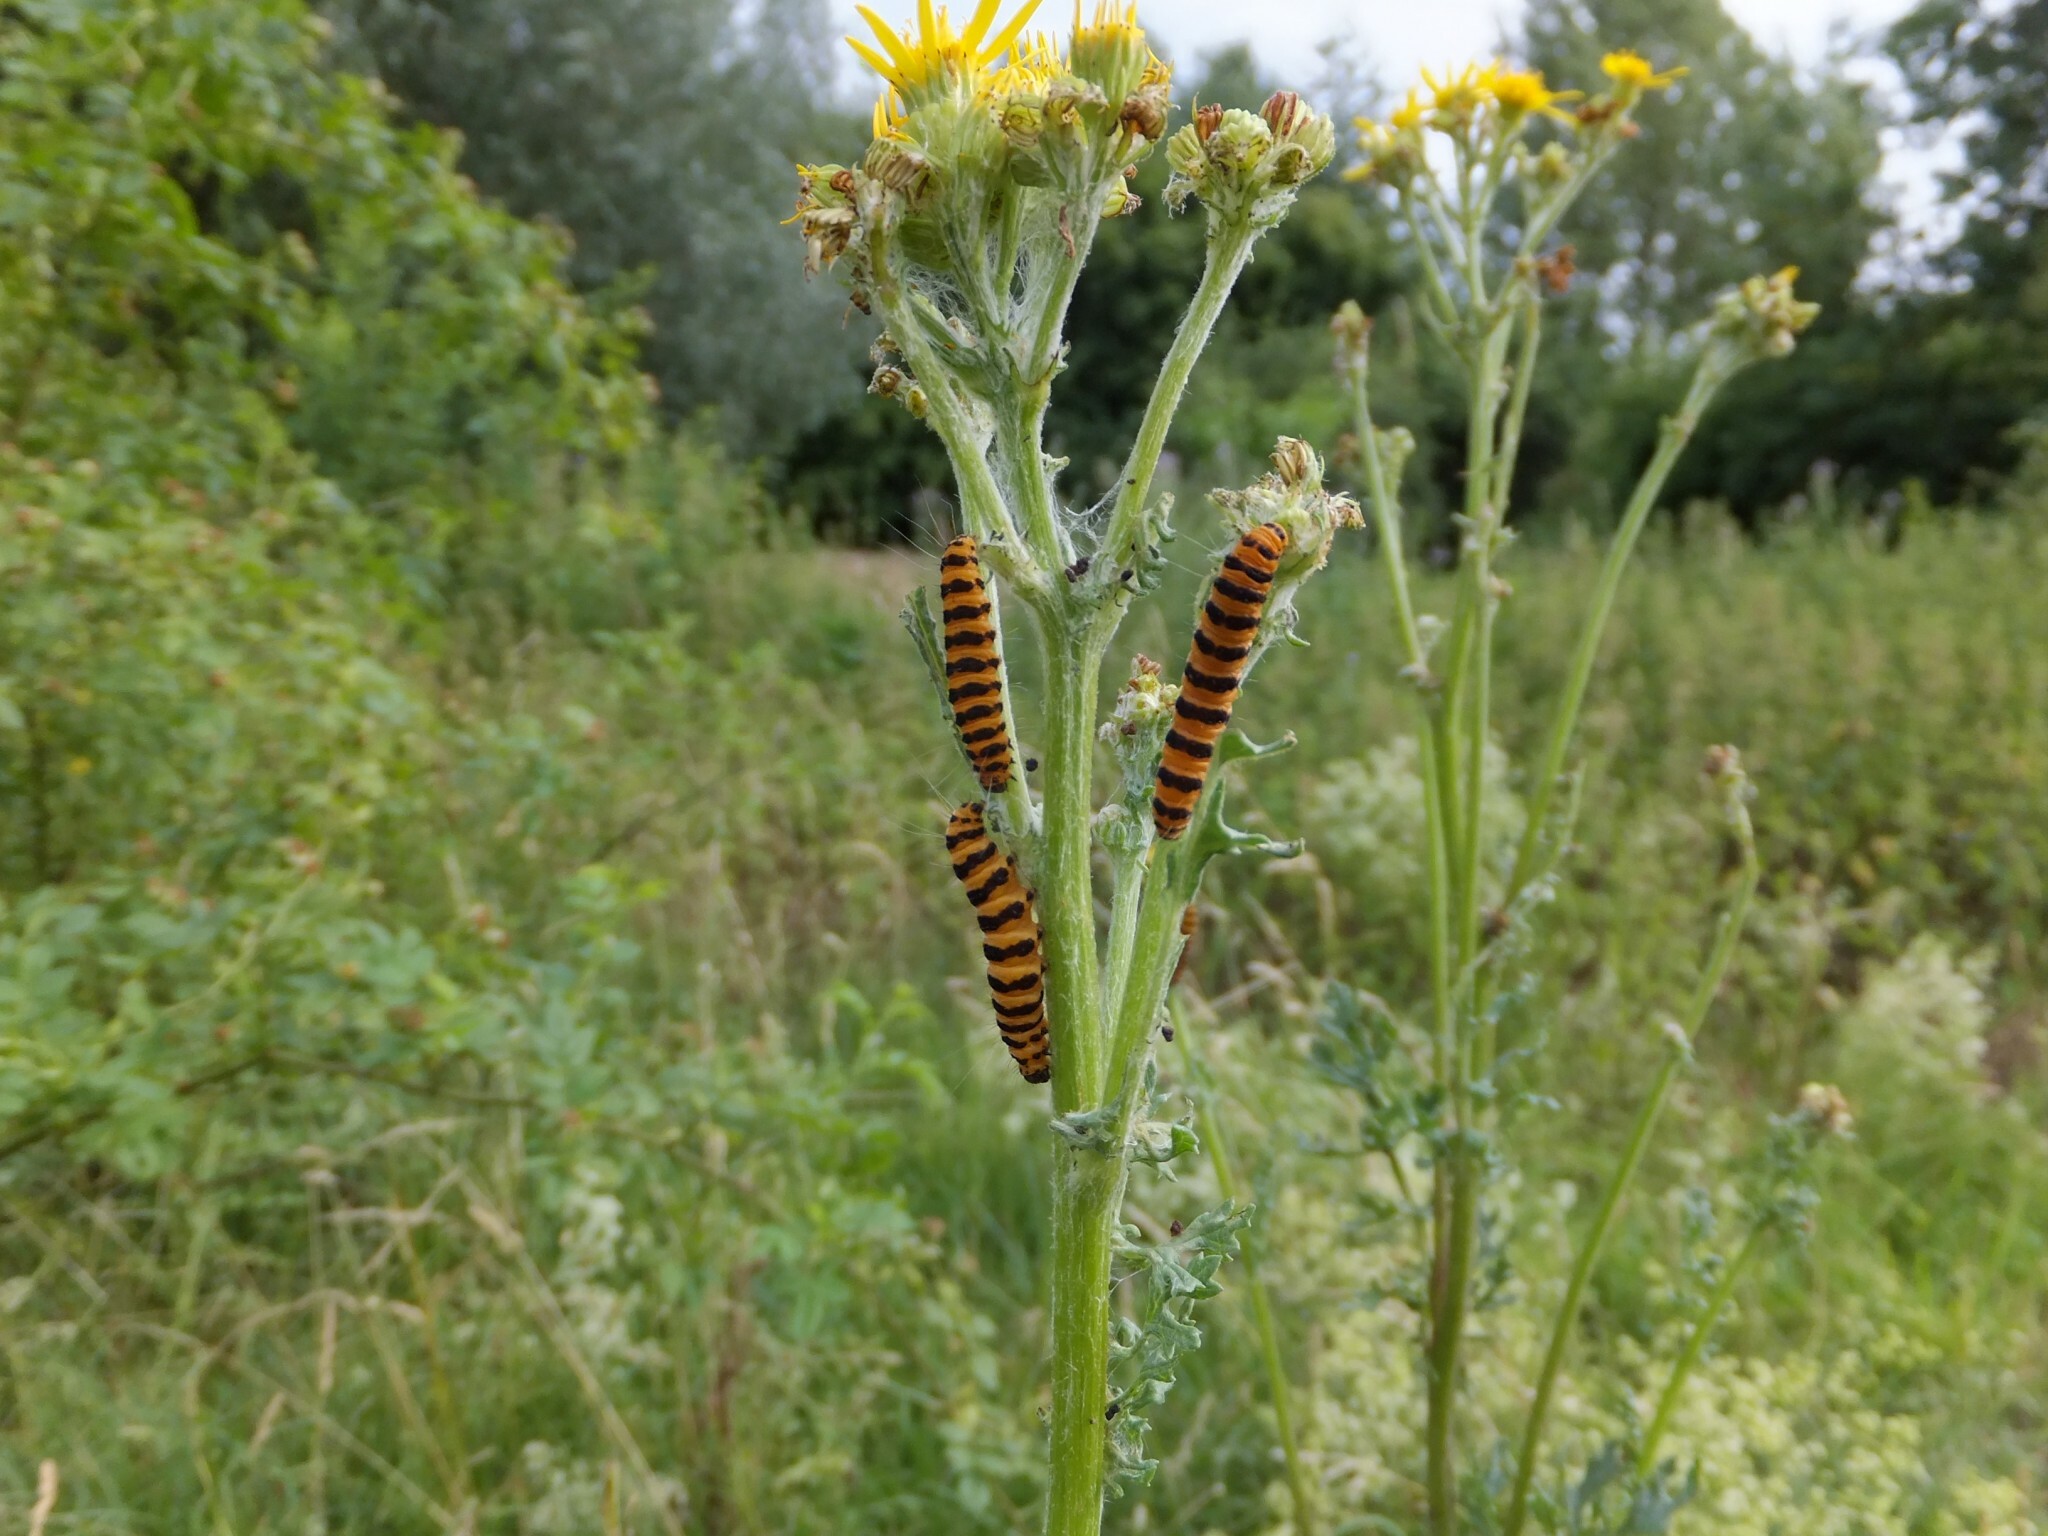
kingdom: Animalia
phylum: Arthropoda
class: Insecta
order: Lepidoptera
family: Erebidae
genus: Tyria
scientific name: Tyria jacobaeae
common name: Cinnabar
